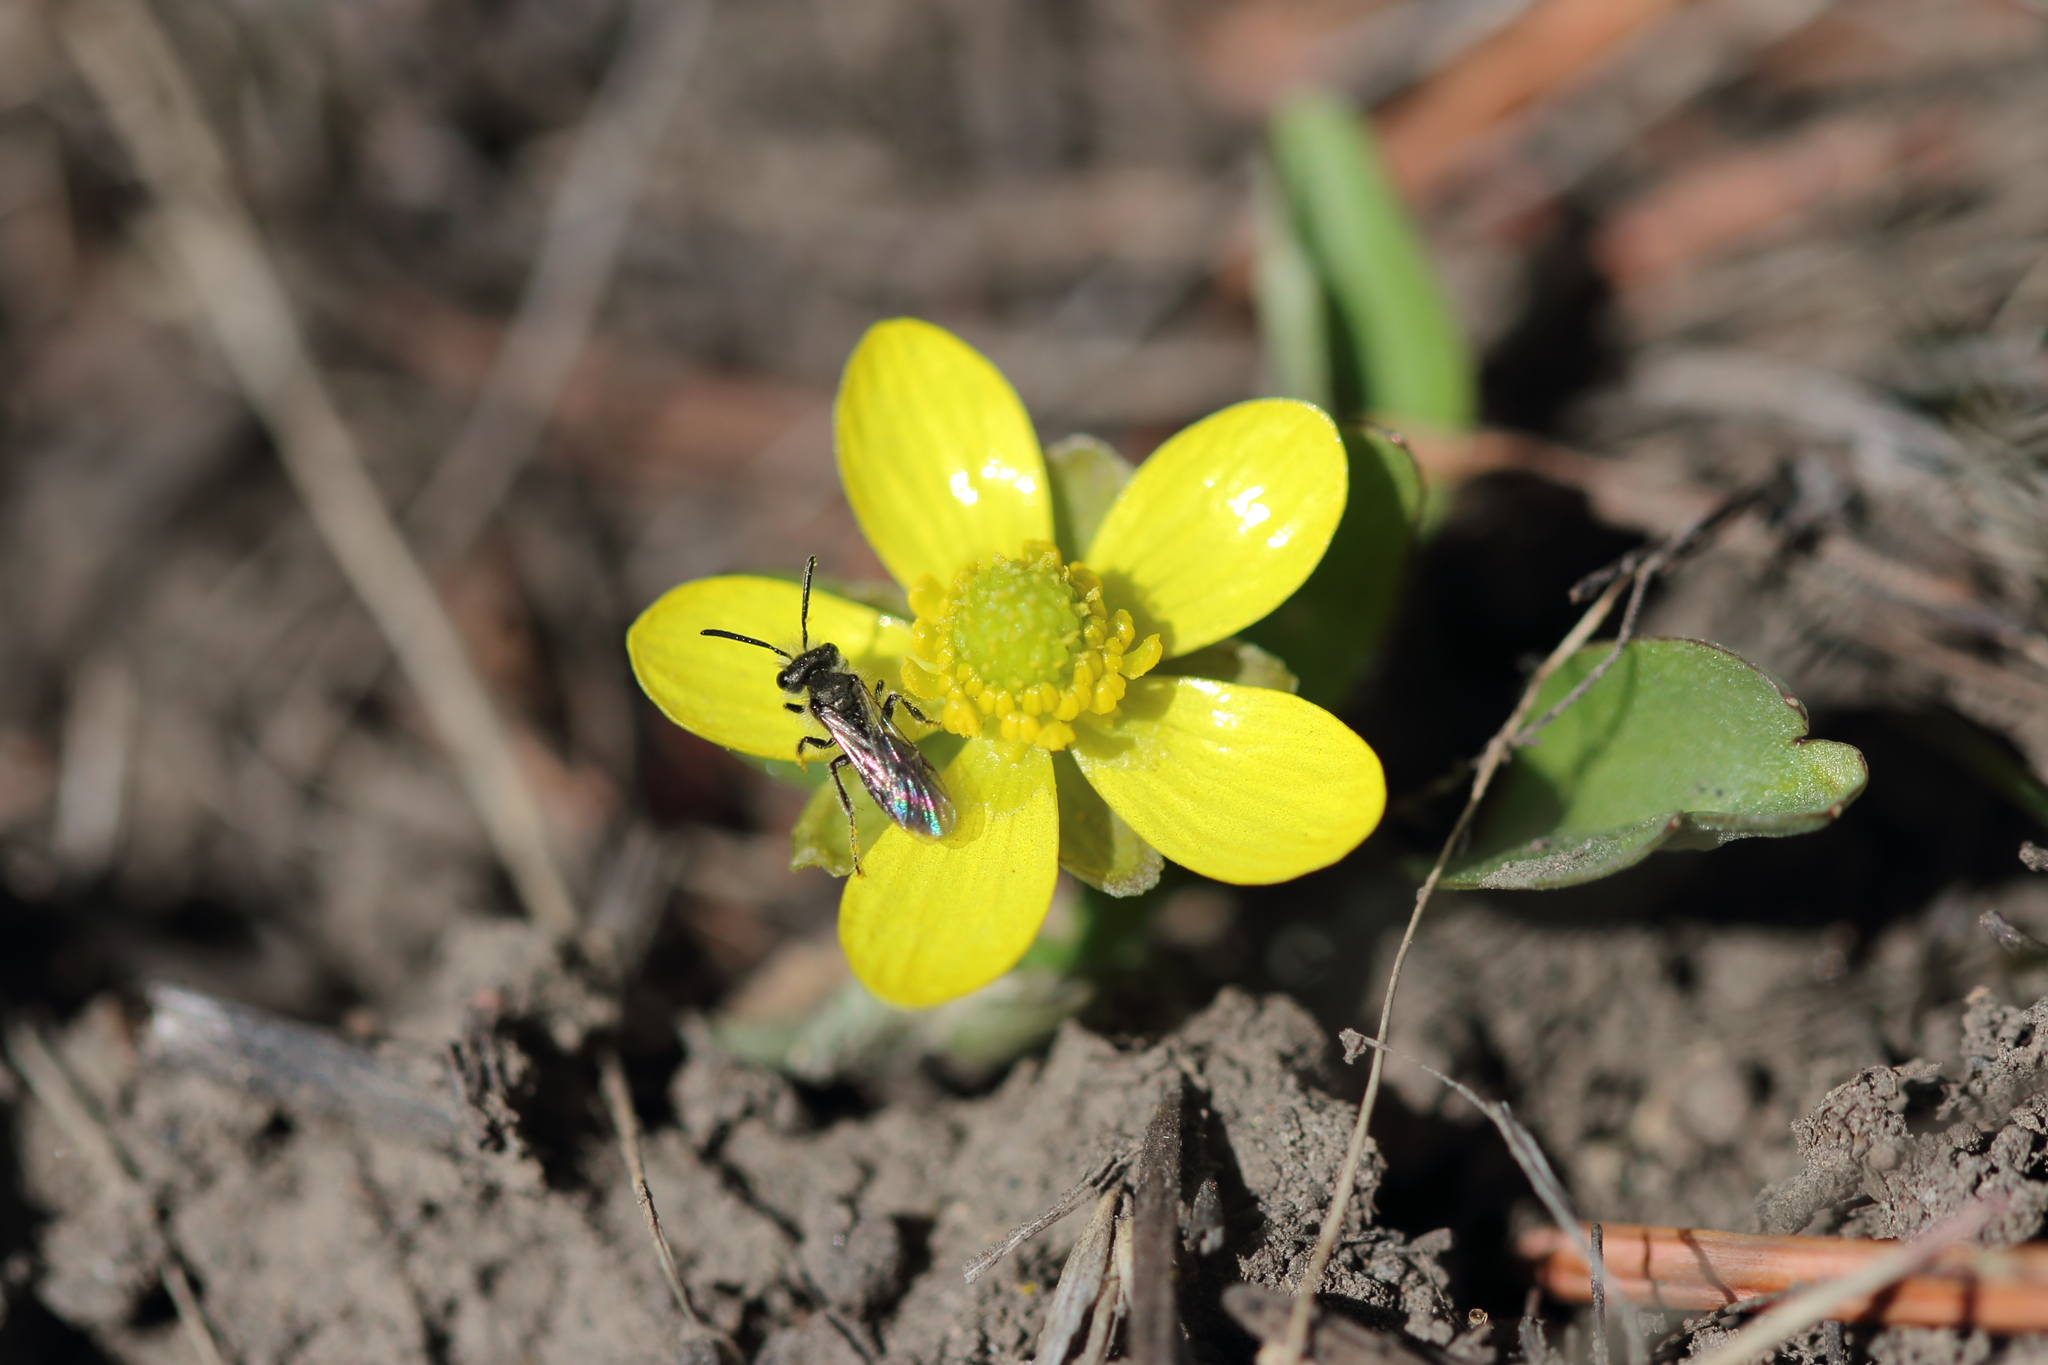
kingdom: Plantae
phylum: Tracheophyta
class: Magnoliopsida
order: Ranunculales
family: Ranunculaceae
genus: Ranunculus
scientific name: Ranunculus glaberrimus
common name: Sagebrush buttercup
